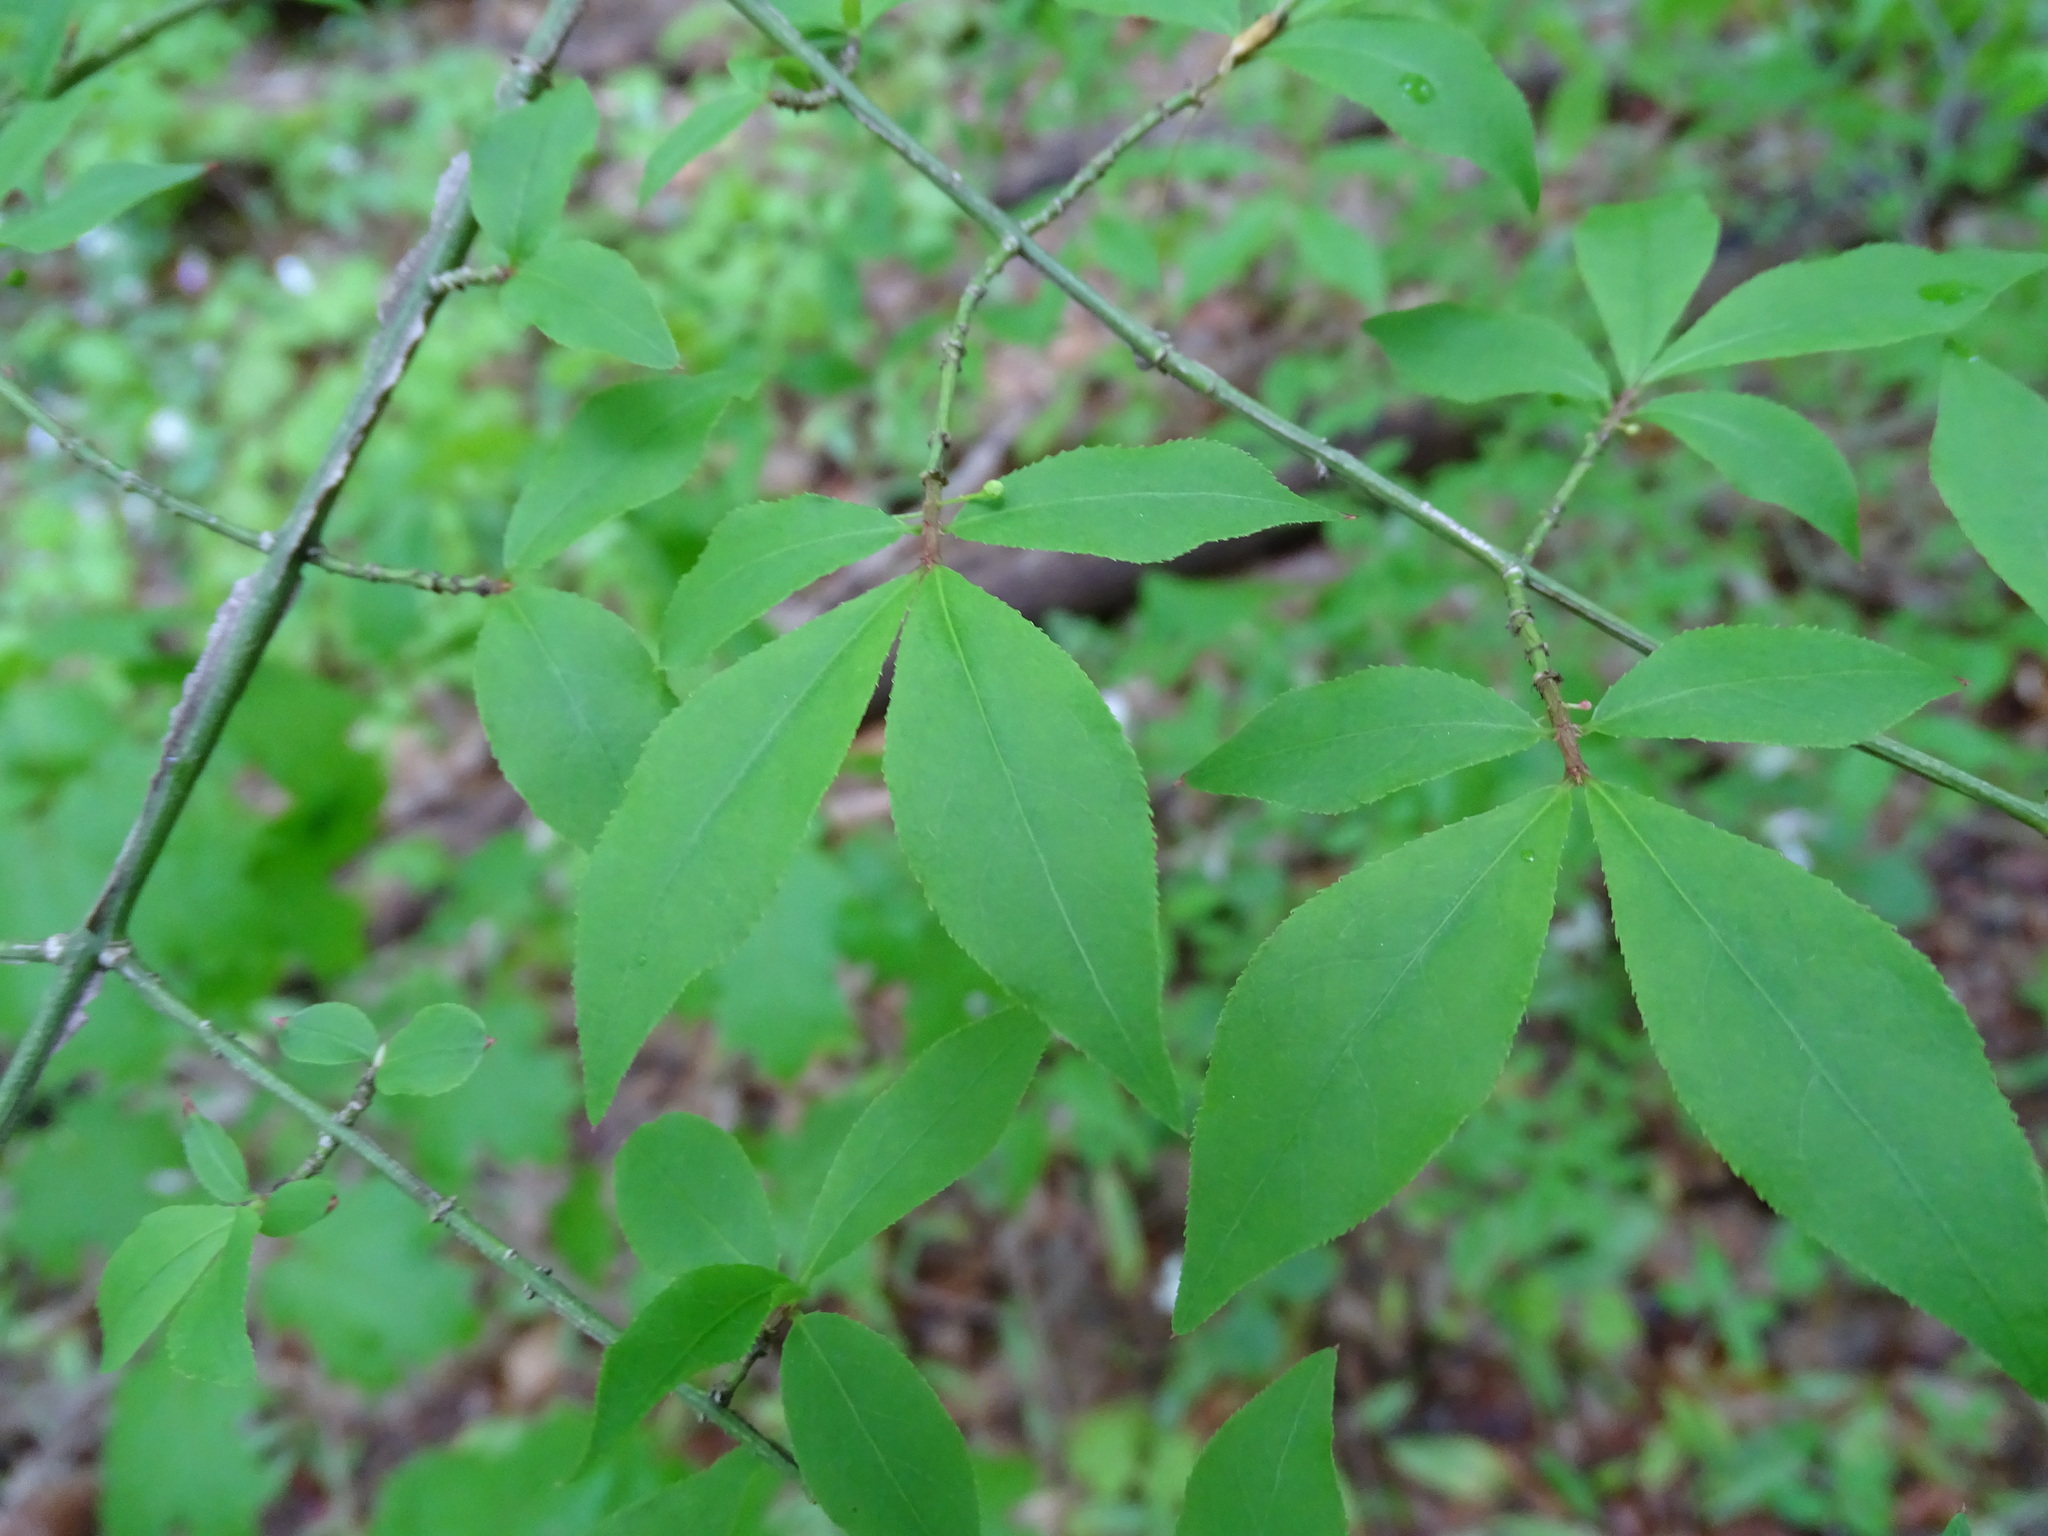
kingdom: Plantae
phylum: Tracheophyta
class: Magnoliopsida
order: Celastrales
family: Celastraceae
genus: Euonymus
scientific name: Euonymus alatus
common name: Winged euonymus
